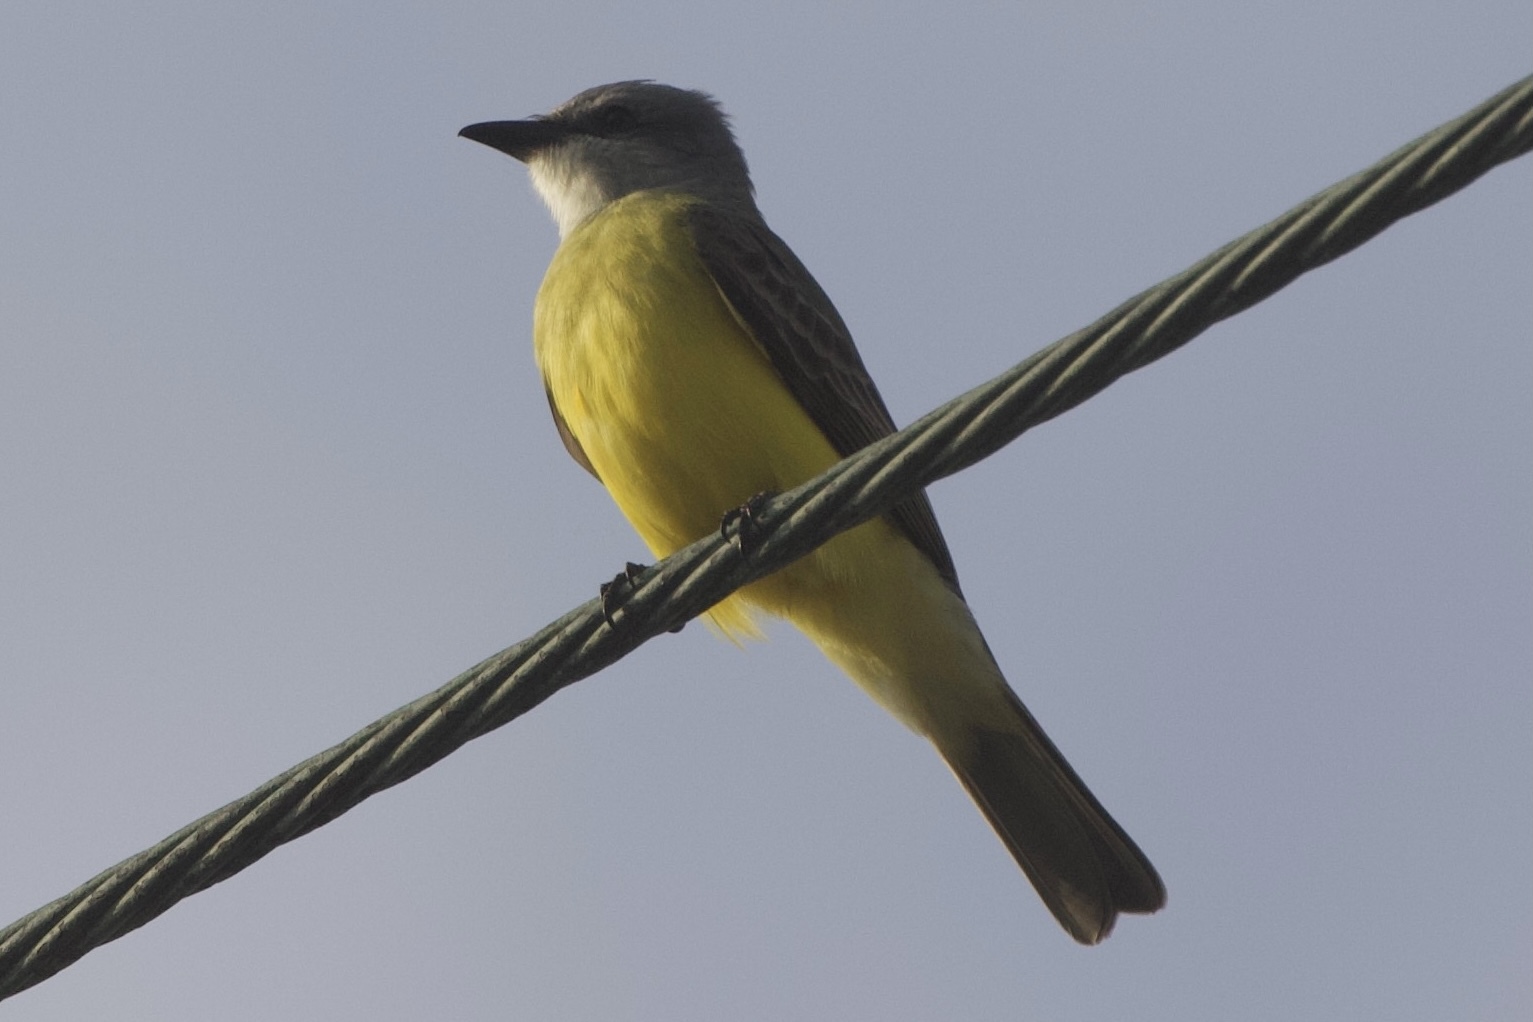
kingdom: Animalia
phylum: Chordata
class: Aves
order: Passeriformes
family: Tyrannidae
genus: Tyrannus
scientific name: Tyrannus couchii
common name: Couch's kingbird
